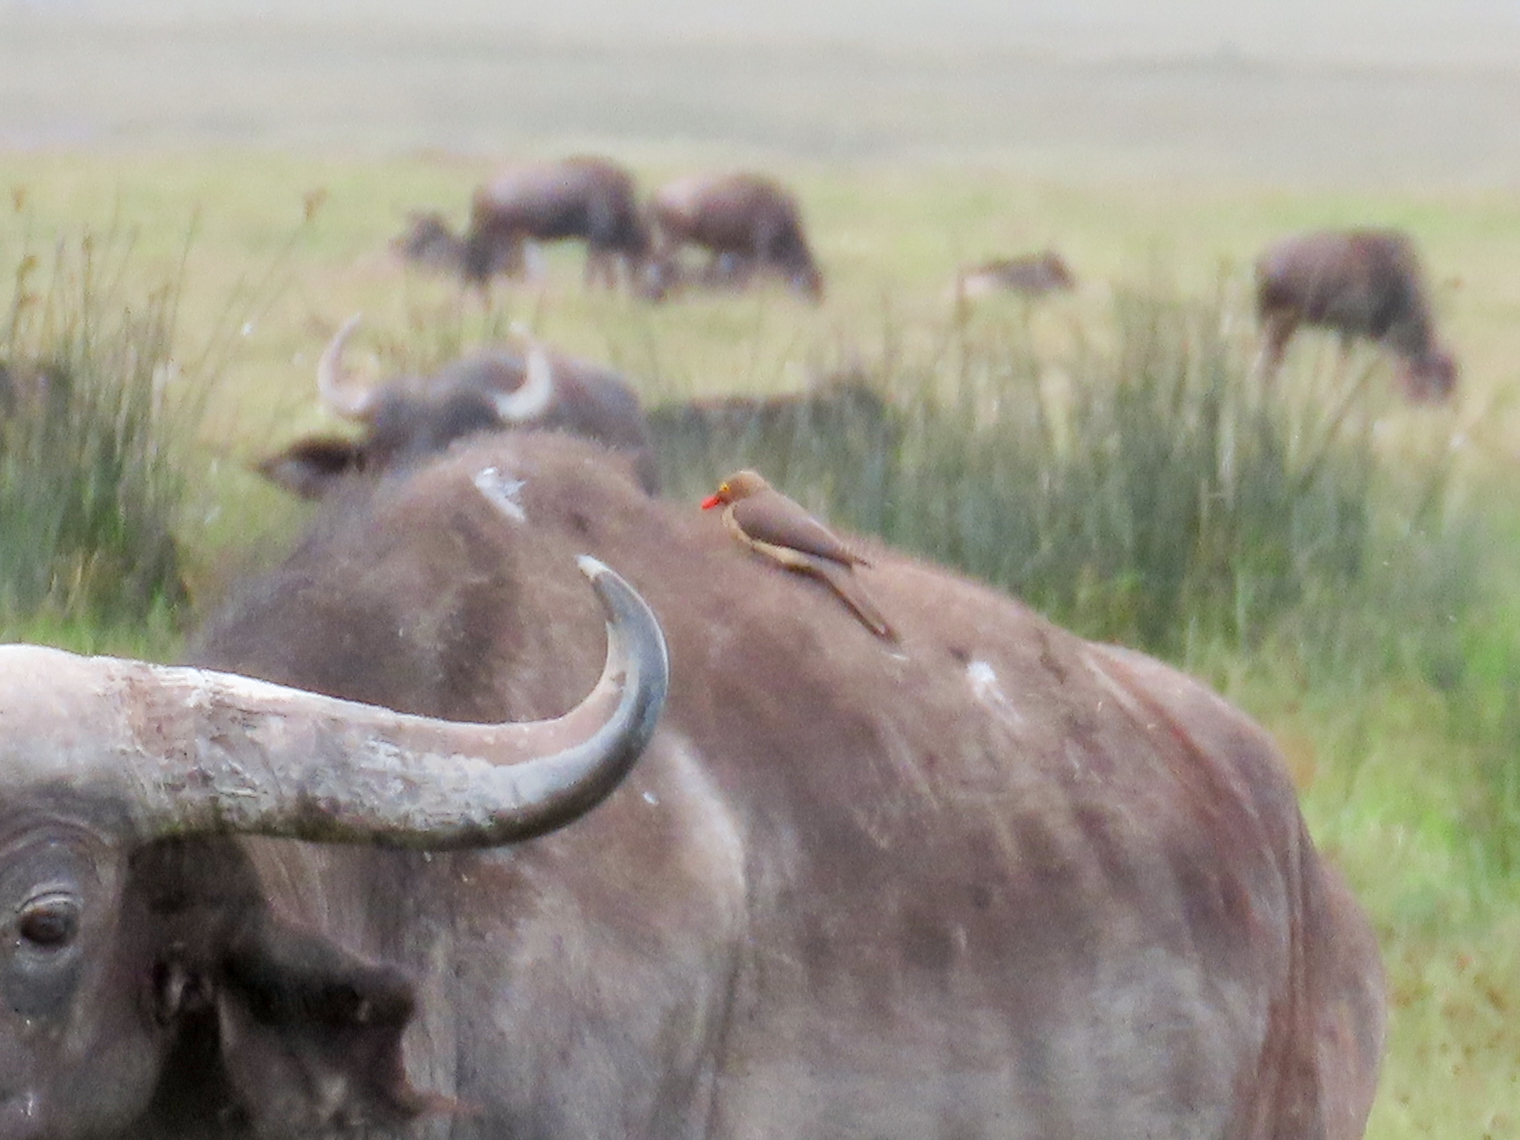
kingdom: Animalia
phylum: Chordata
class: Aves
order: Passeriformes
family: Buphagidae
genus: Buphagus
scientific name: Buphagus erythrorhynchus
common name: Red-billed oxpecker
